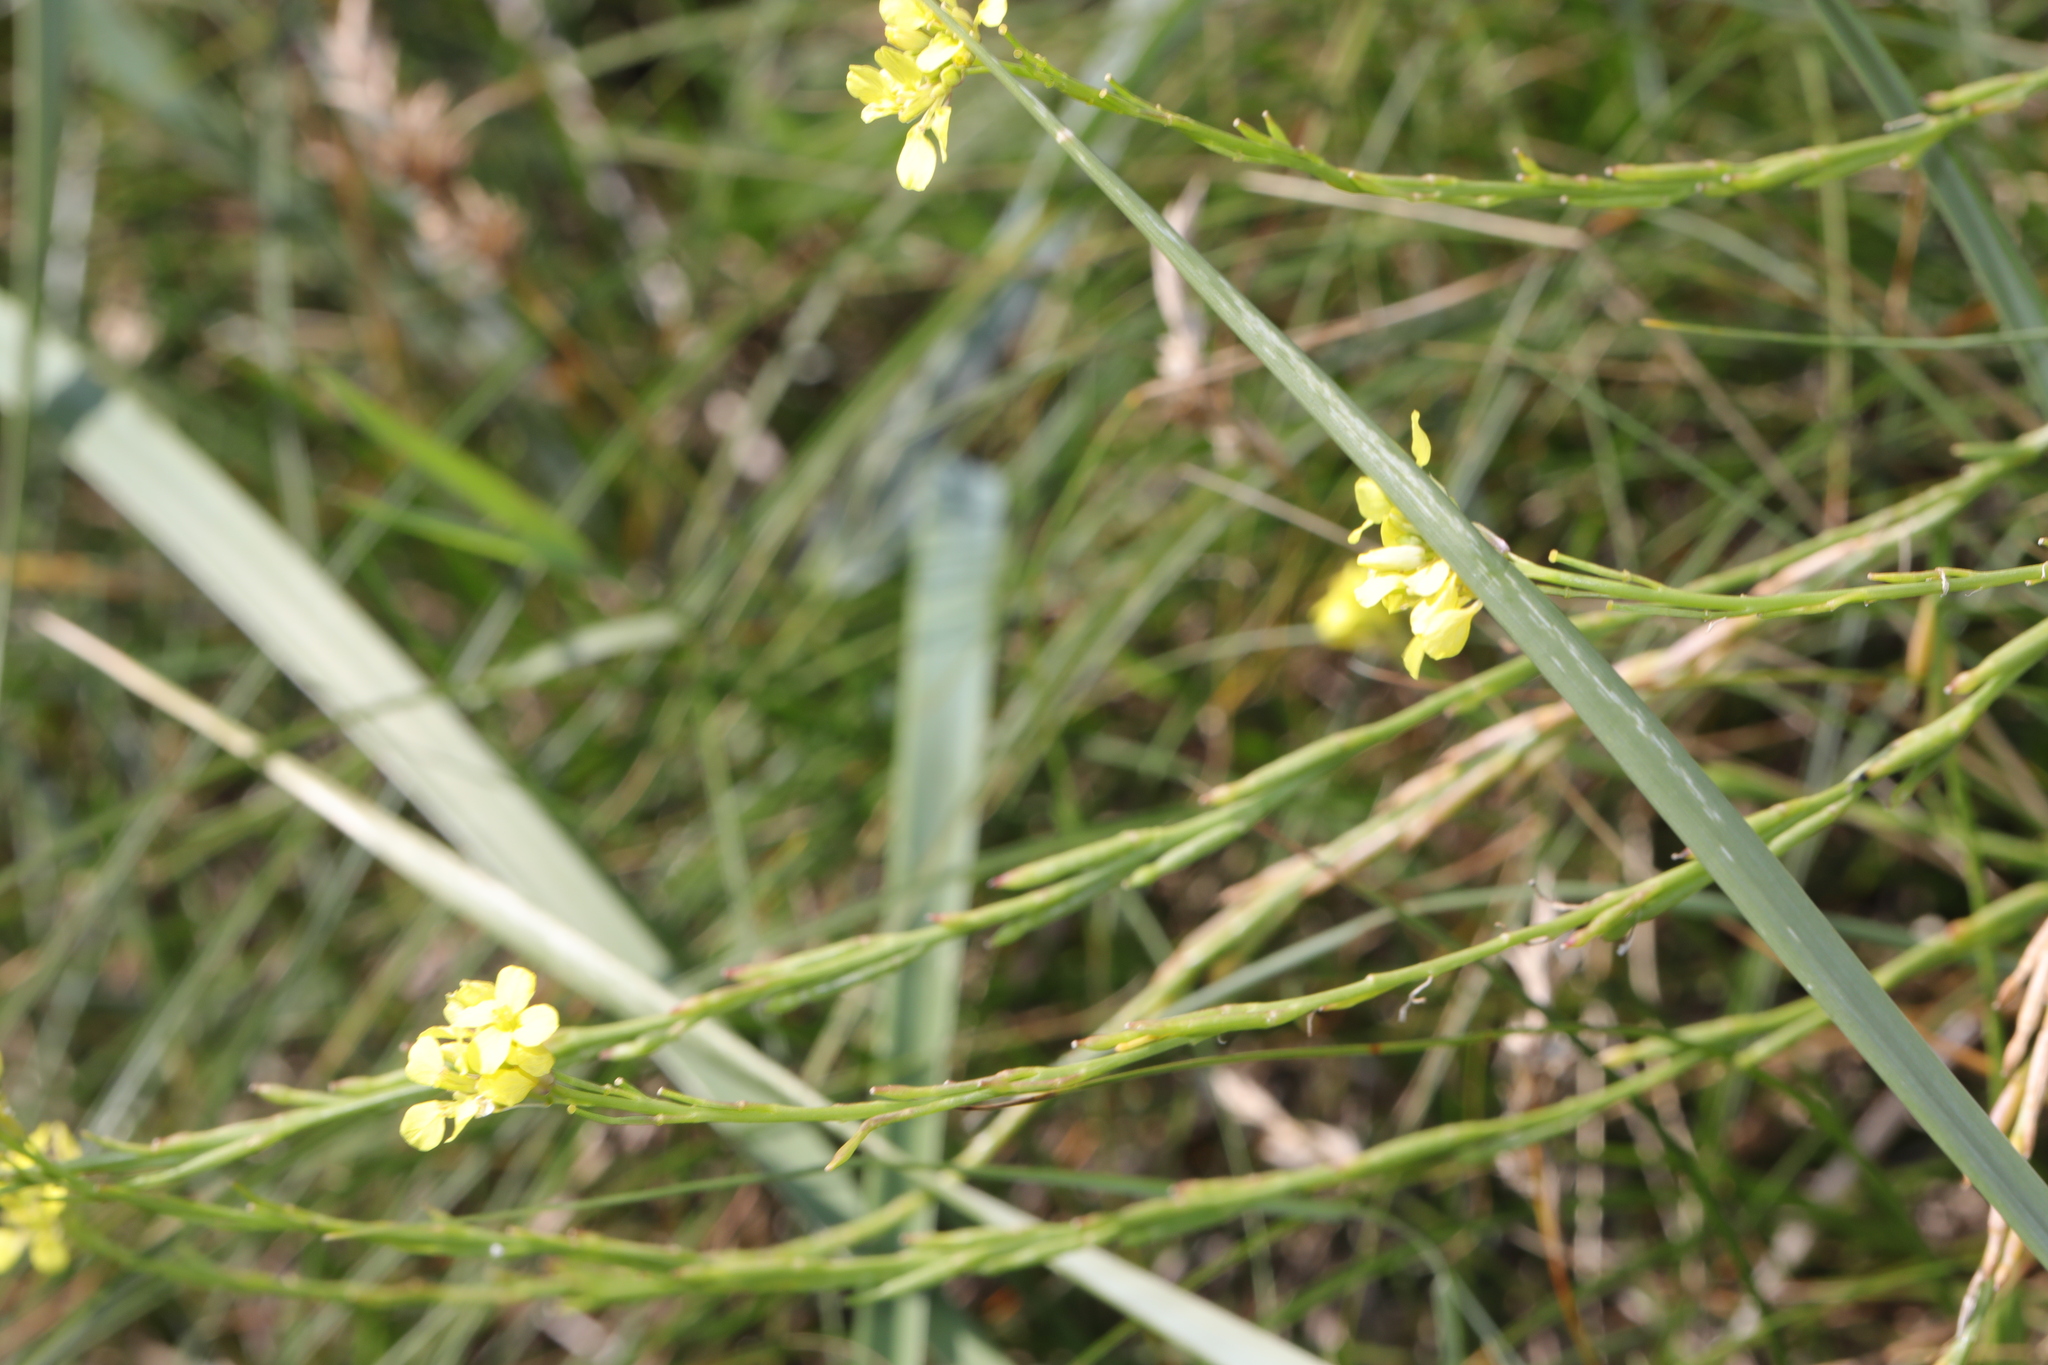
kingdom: Plantae
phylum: Tracheophyta
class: Magnoliopsida
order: Brassicales
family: Brassicaceae
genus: Hirschfeldia
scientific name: Hirschfeldia incana
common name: Hoary mustard
